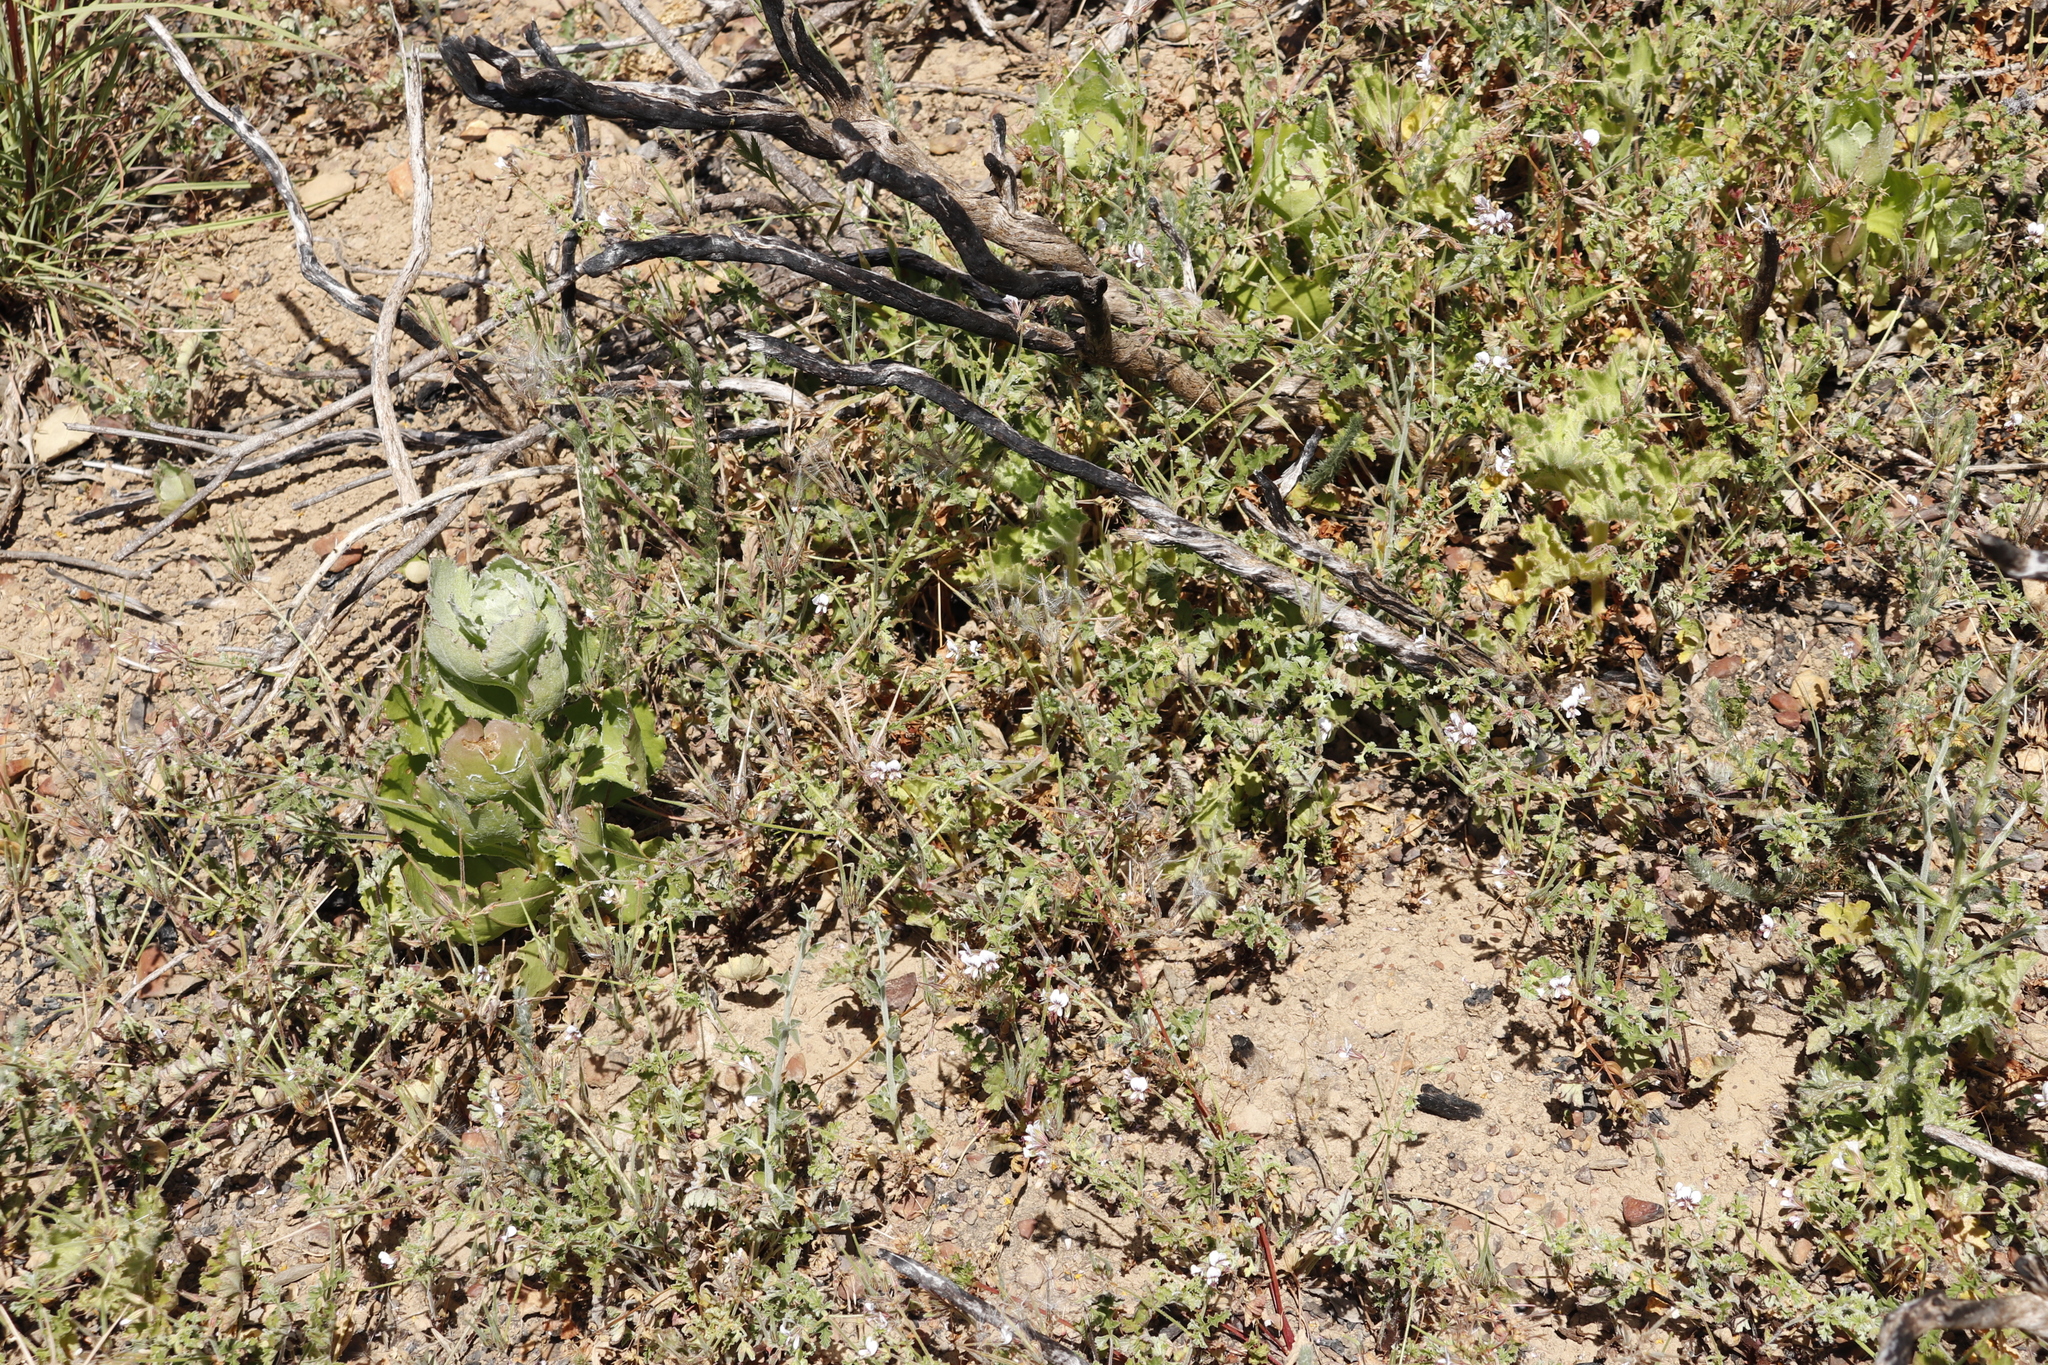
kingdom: Plantae
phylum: Tracheophyta
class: Magnoliopsida
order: Geraniales
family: Geraniaceae
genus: Pelargonium
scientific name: Pelargonium candicans
